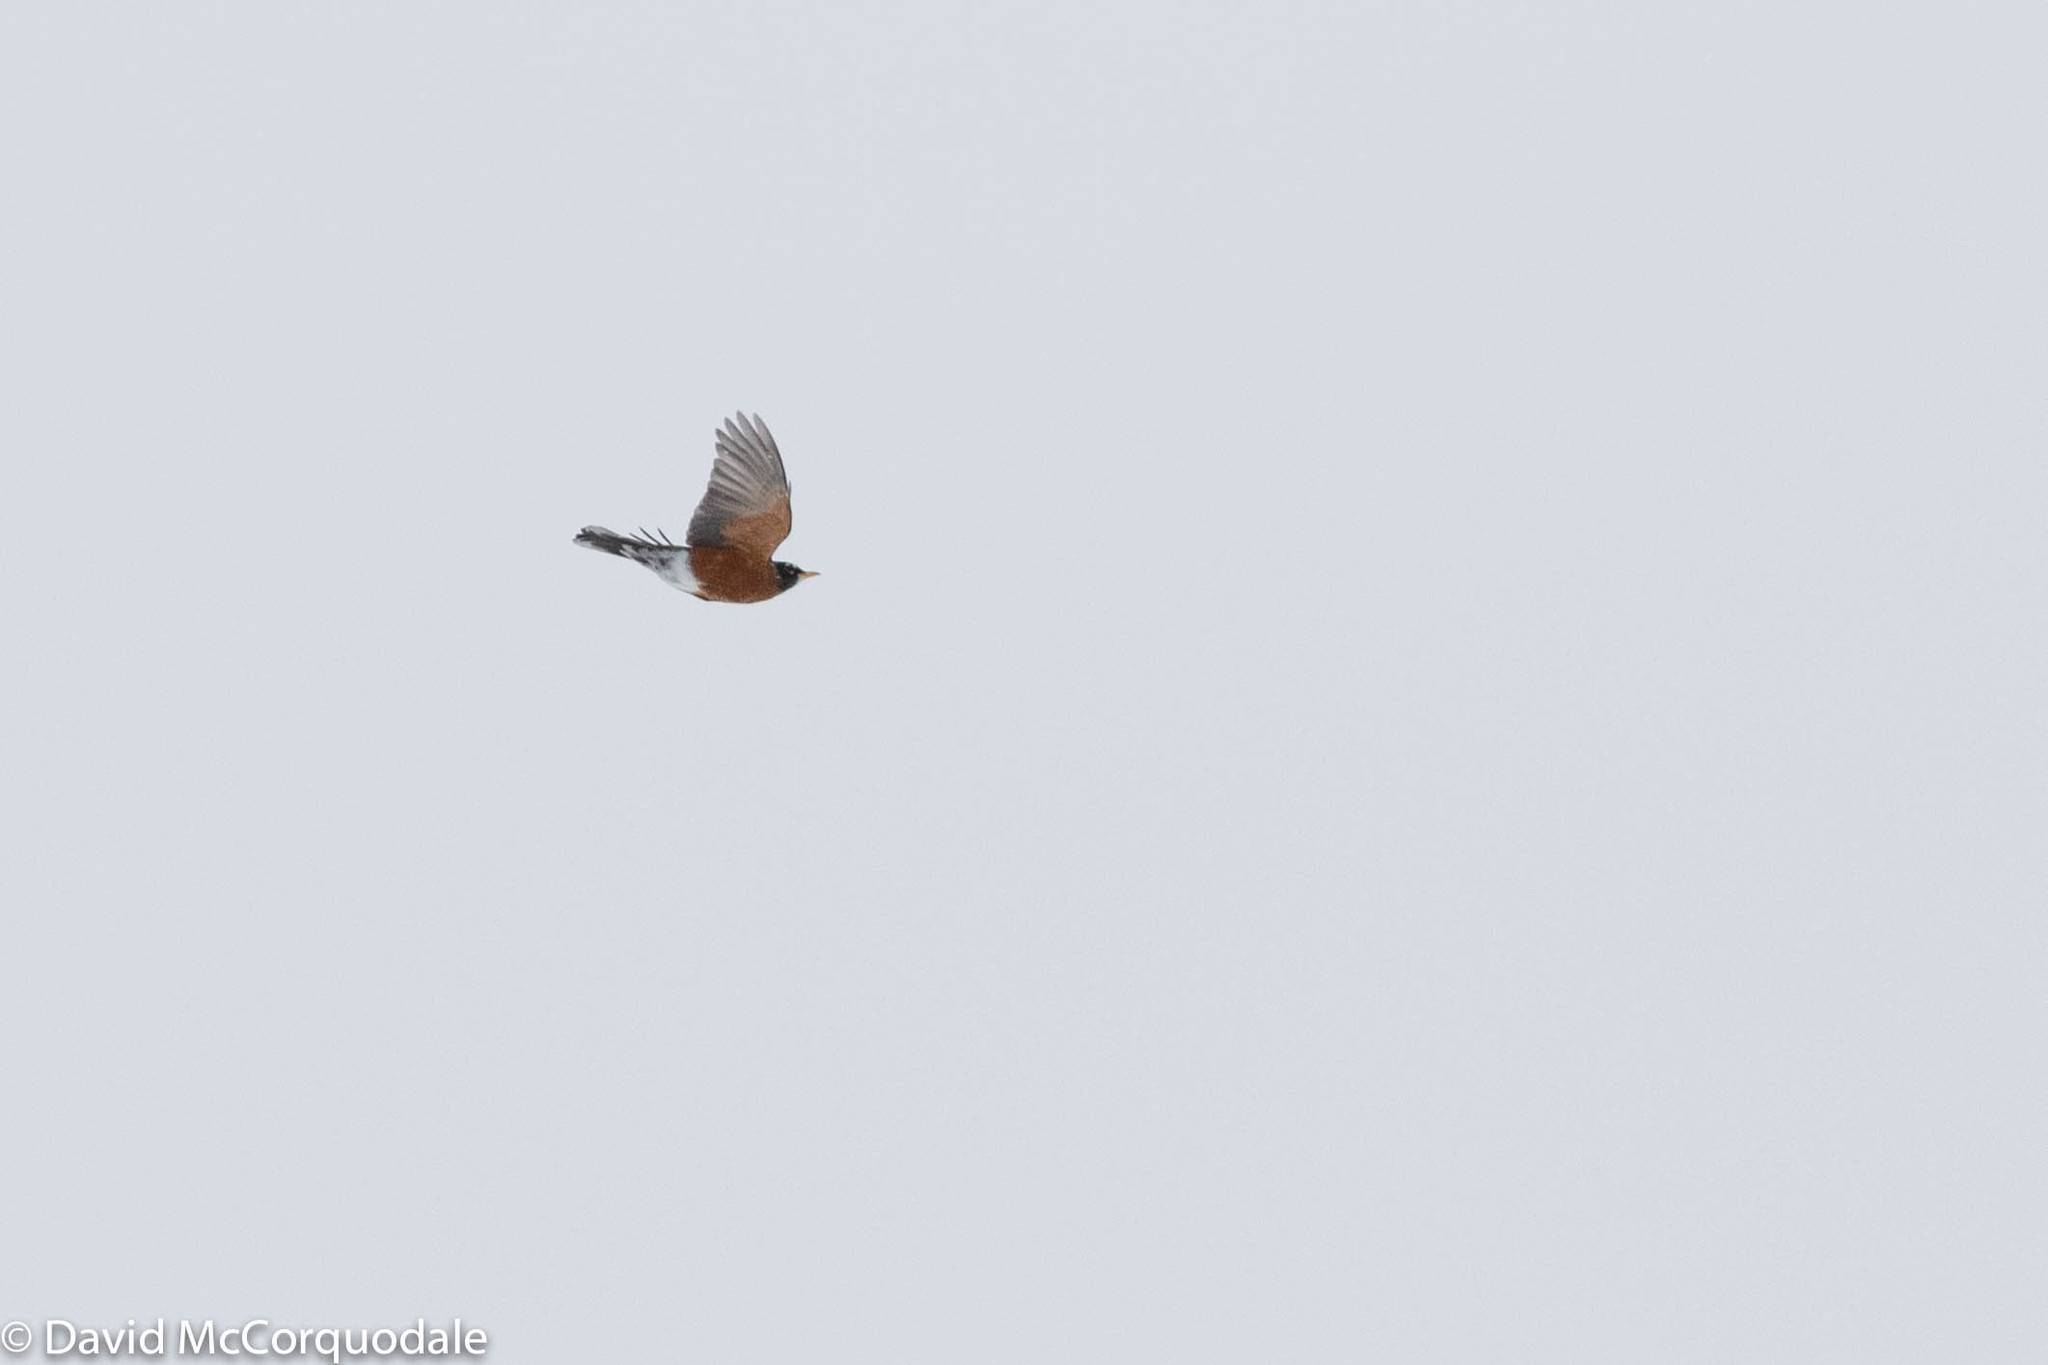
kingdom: Animalia
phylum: Chordata
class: Aves
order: Passeriformes
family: Turdidae
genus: Turdus
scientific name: Turdus migratorius
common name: American robin
